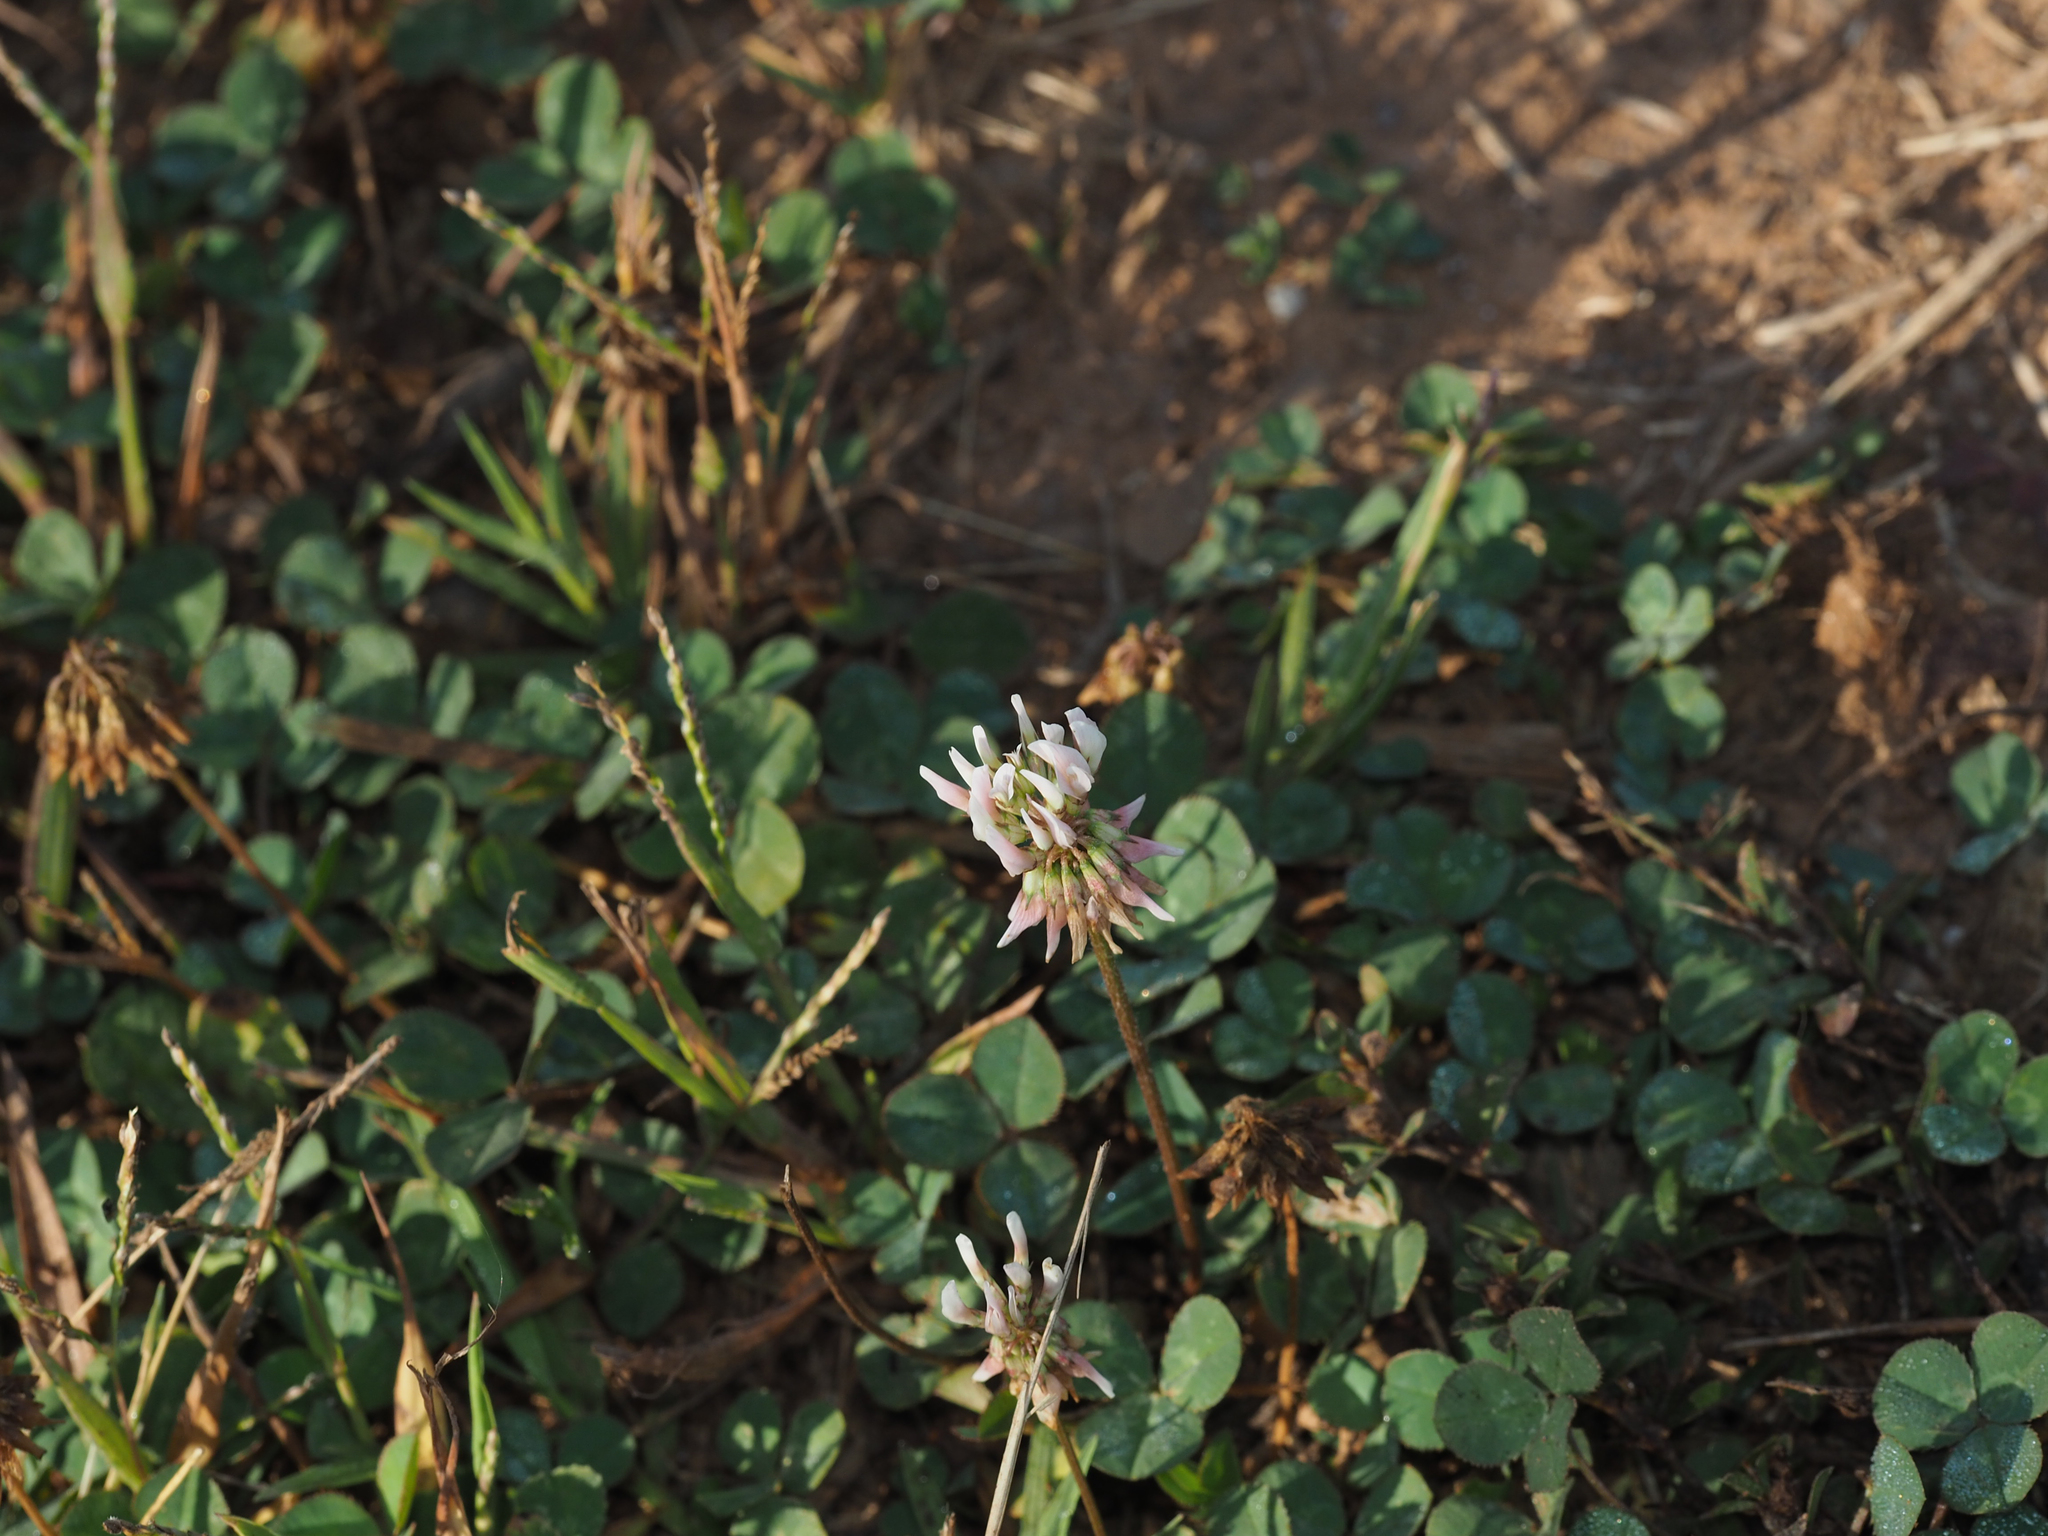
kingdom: Plantae
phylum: Tracheophyta
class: Magnoliopsida
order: Fabales
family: Fabaceae
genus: Trifolium
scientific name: Trifolium repens
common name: White clover
